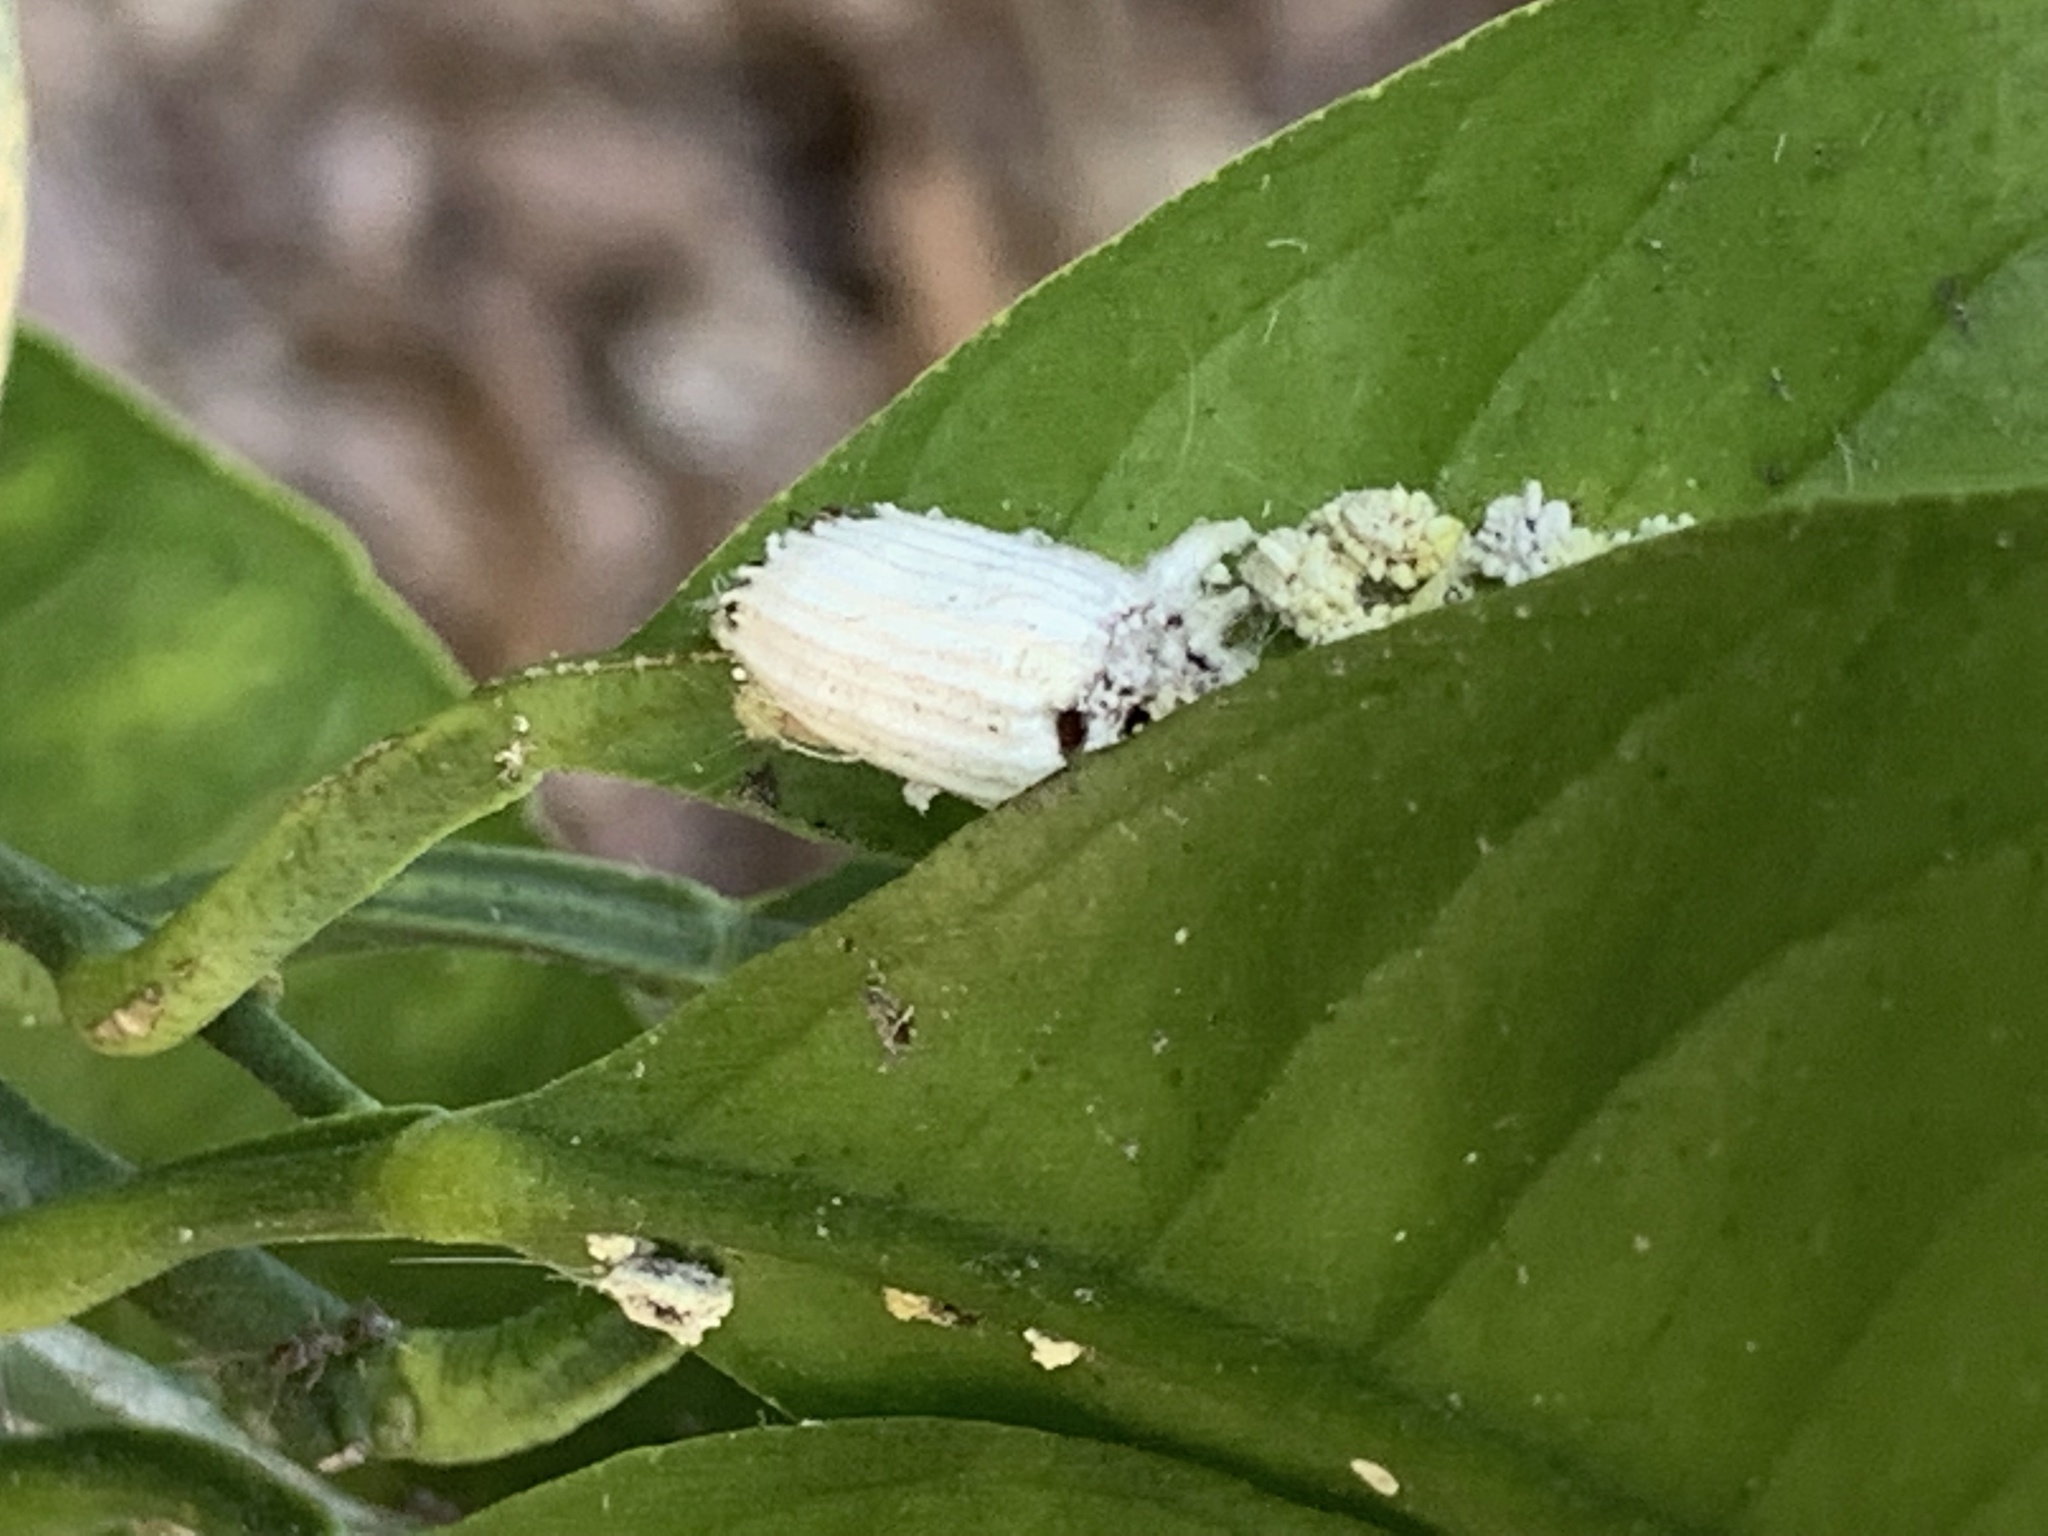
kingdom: Animalia
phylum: Arthropoda
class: Insecta
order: Hemiptera
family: Margarodidae
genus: Icerya
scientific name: Icerya purchasi
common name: Cottony cushion scale
